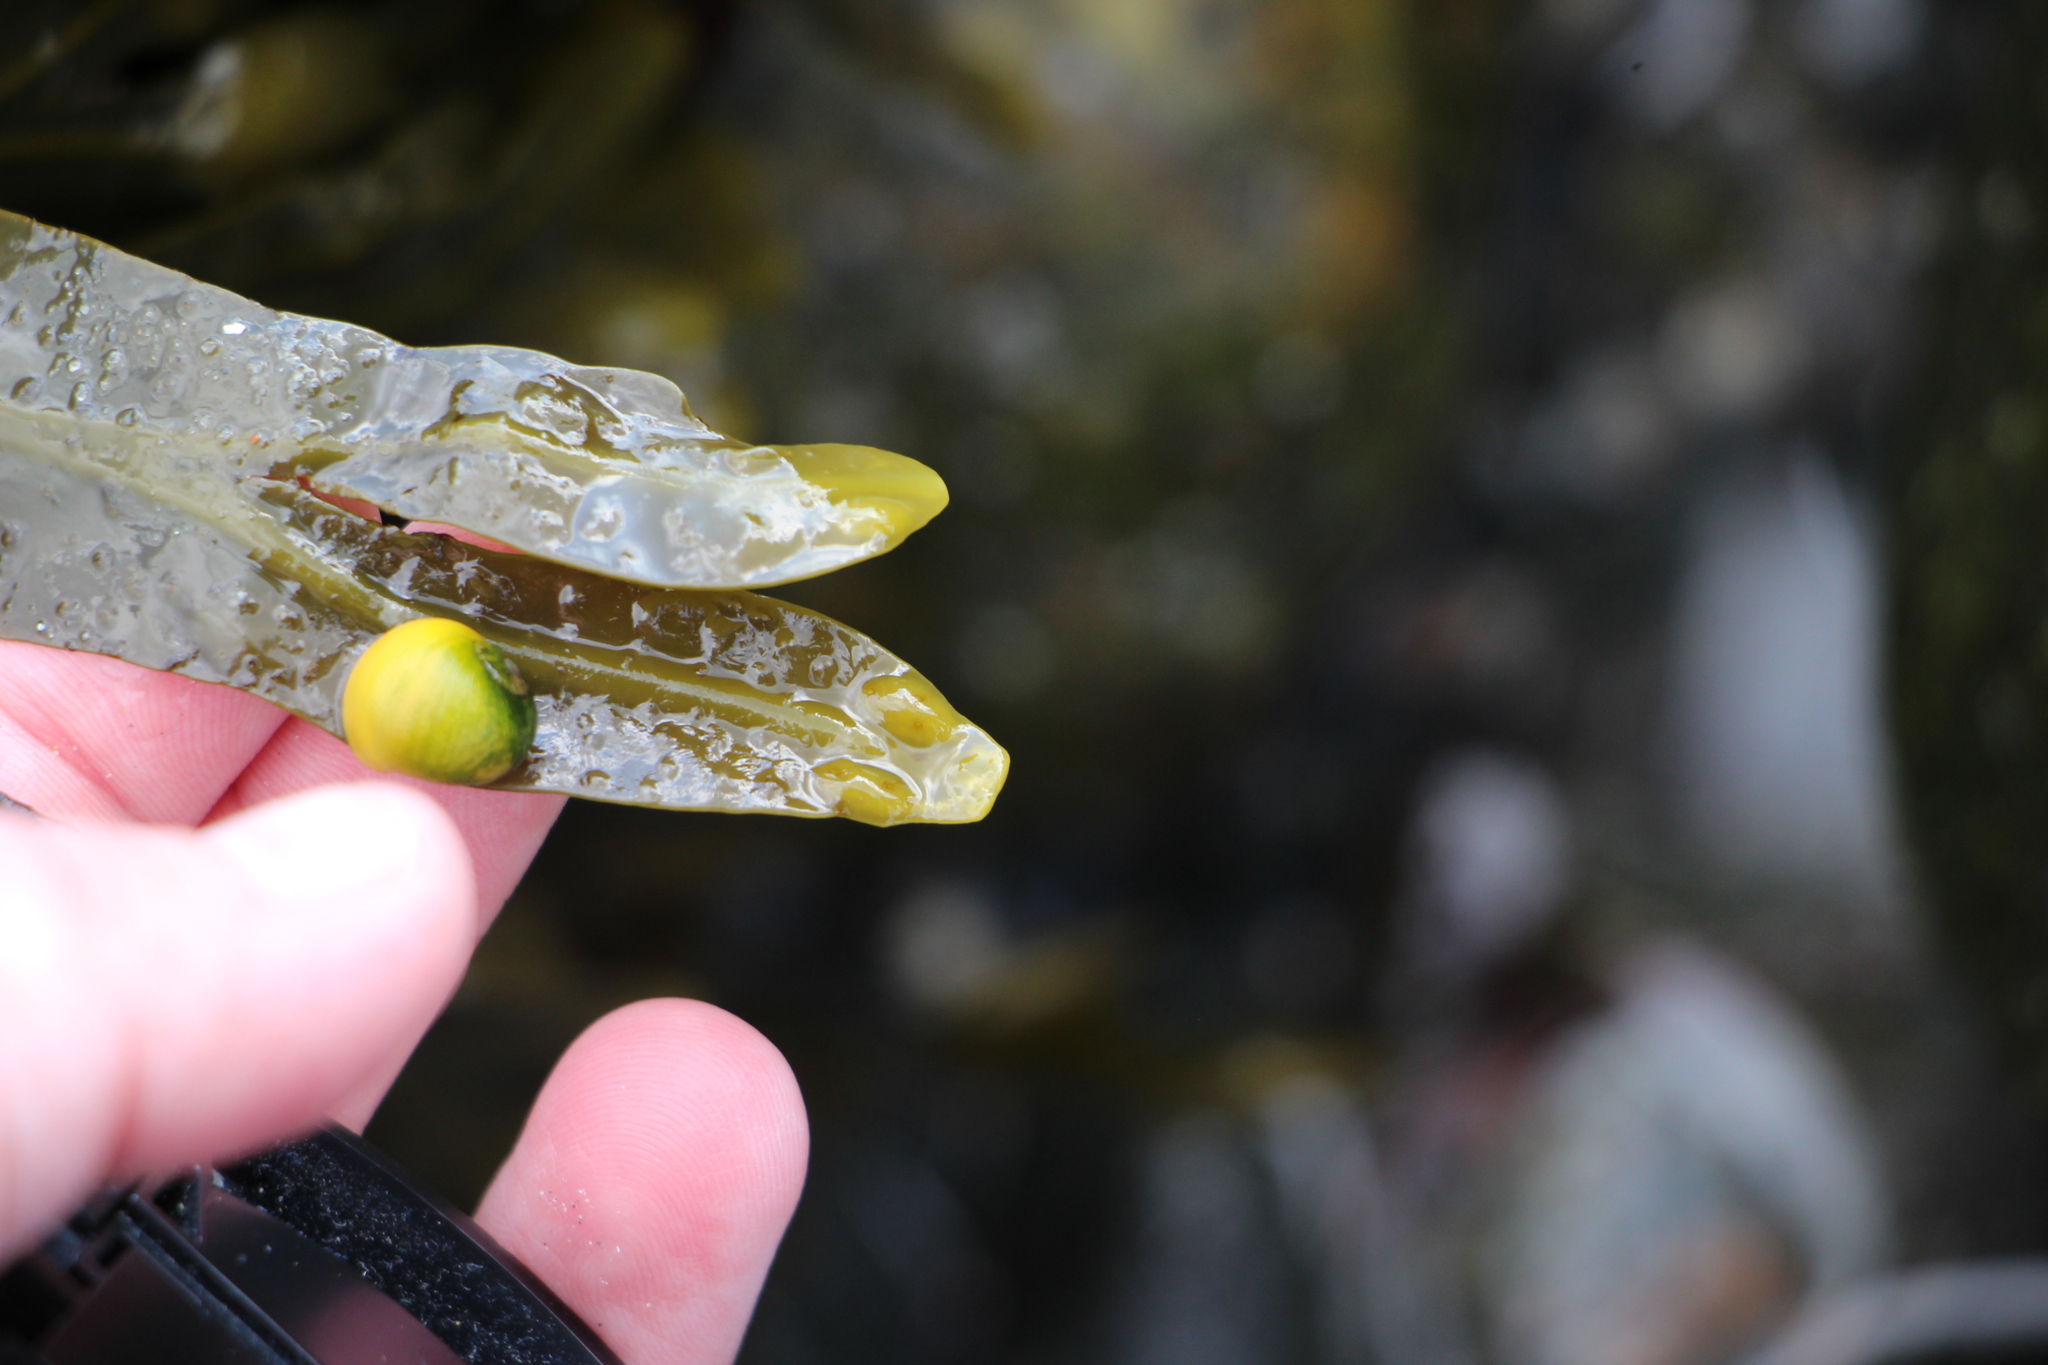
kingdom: Animalia
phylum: Mollusca
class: Gastropoda
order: Littorinimorpha
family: Littorinidae
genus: Littorina
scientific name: Littorina obtusata
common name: Flat periwinkle
